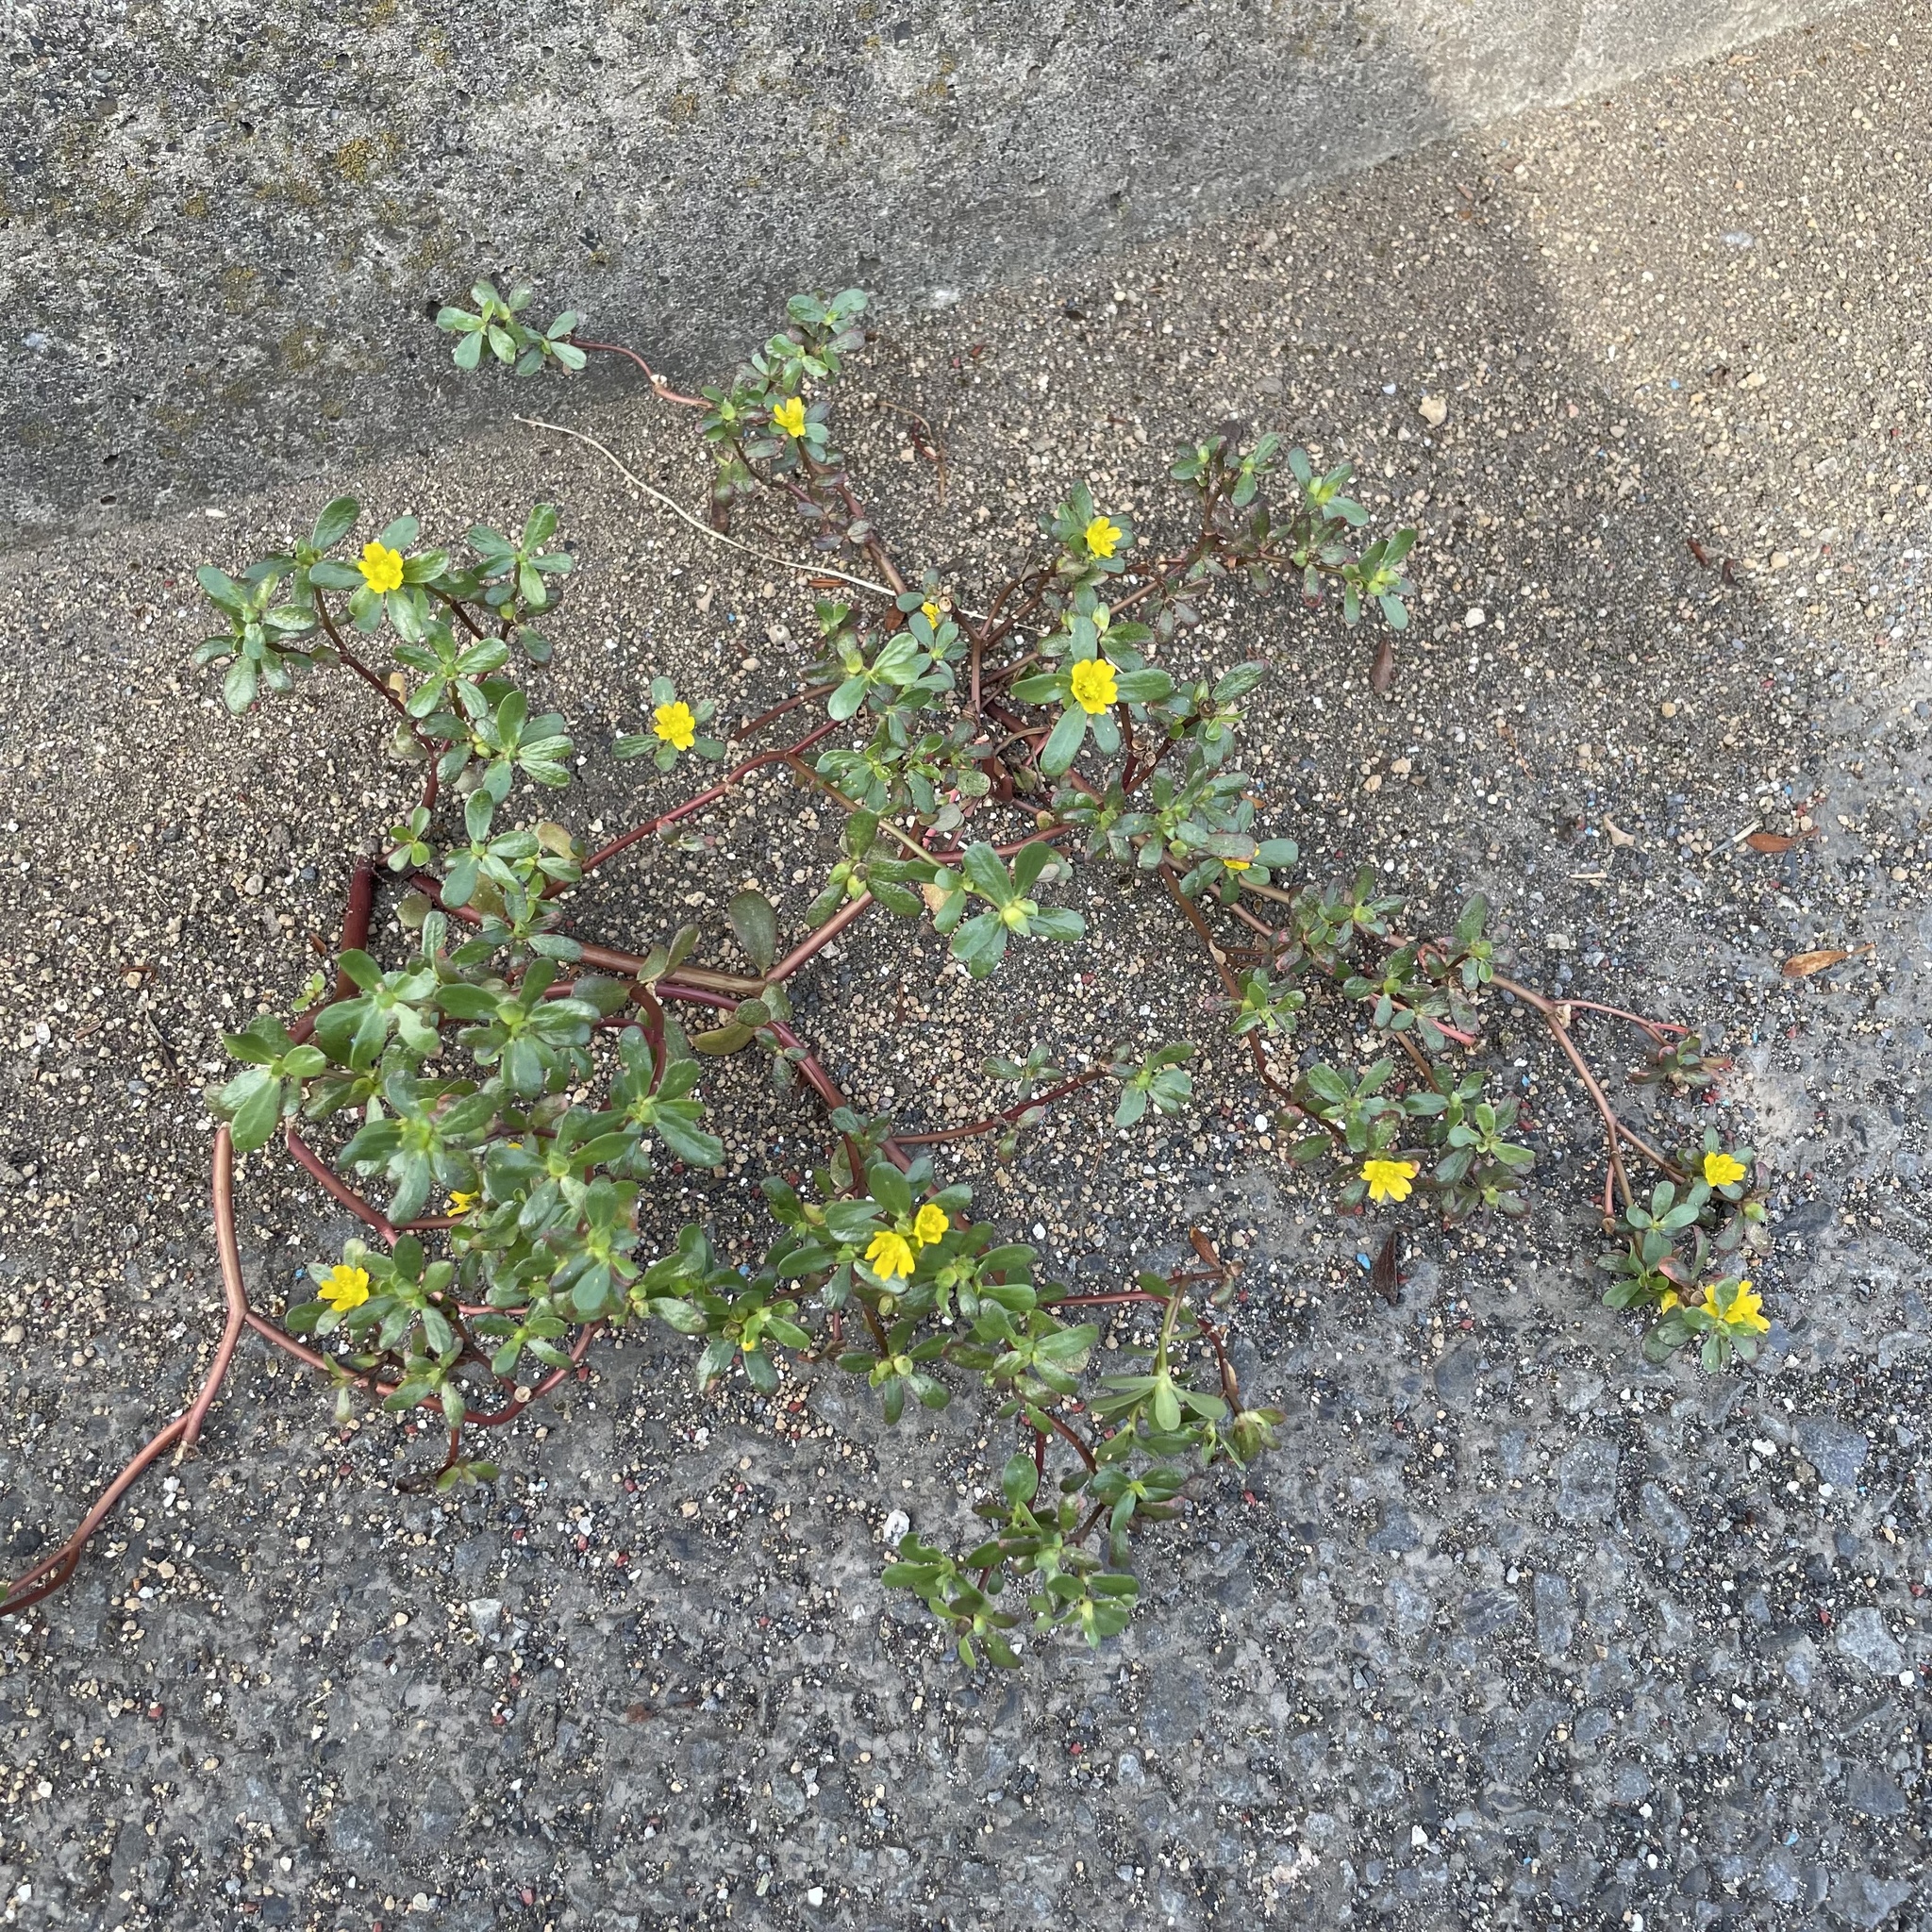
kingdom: Plantae
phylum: Tracheophyta
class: Magnoliopsida
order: Caryophyllales
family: Portulacaceae
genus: Portulaca
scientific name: Portulaca oleracea
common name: Common purslane
